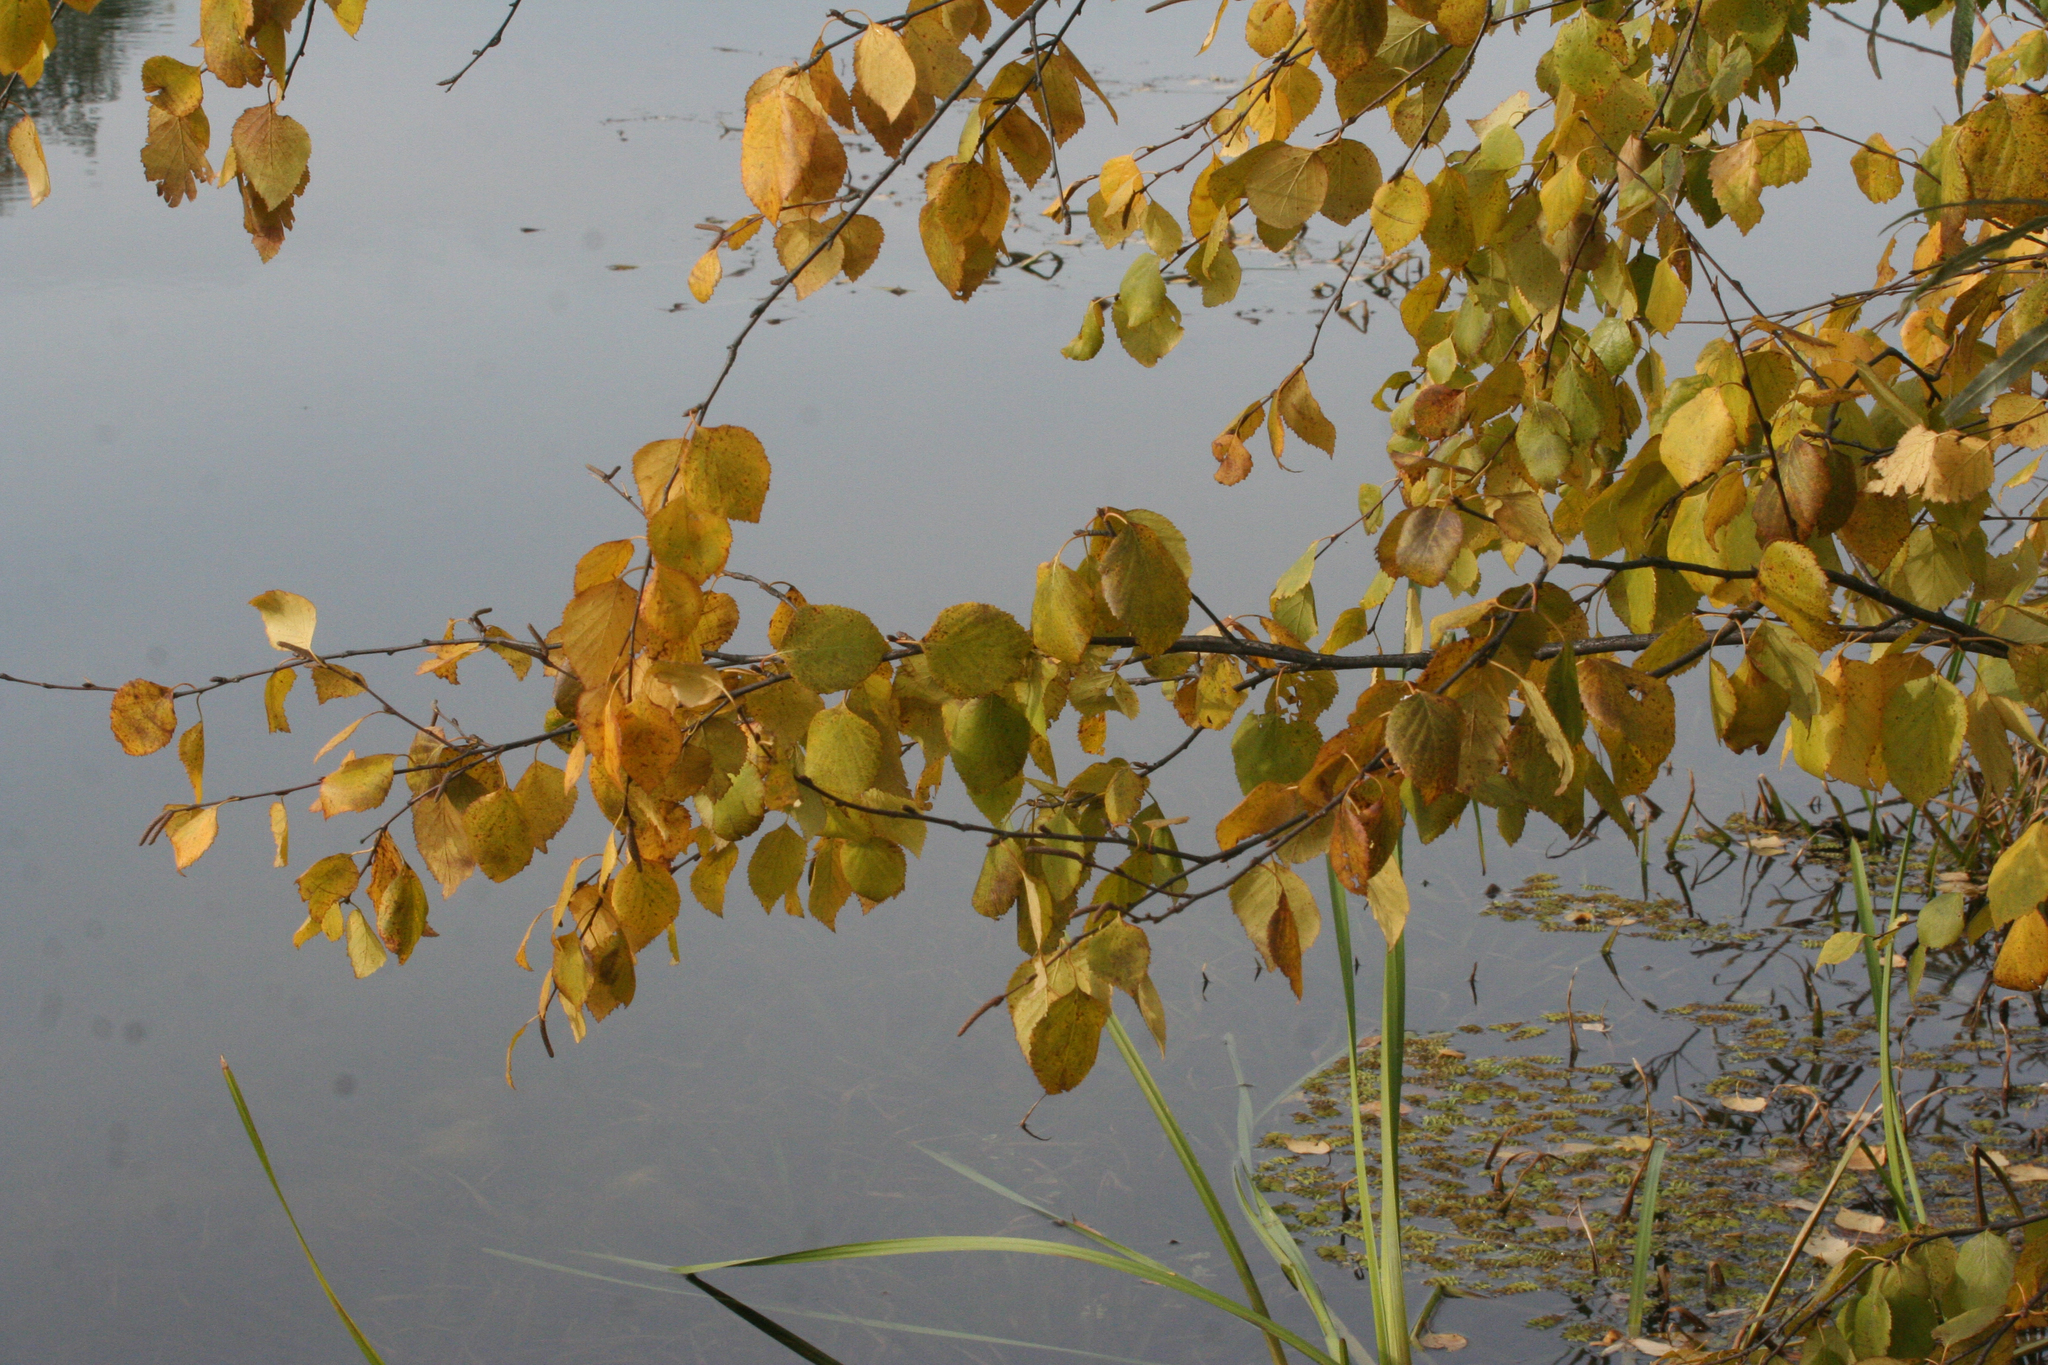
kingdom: Plantae
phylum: Tracheophyta
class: Magnoliopsida
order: Fagales
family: Betulaceae
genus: Betula
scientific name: Betula pubescens
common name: Downy birch
